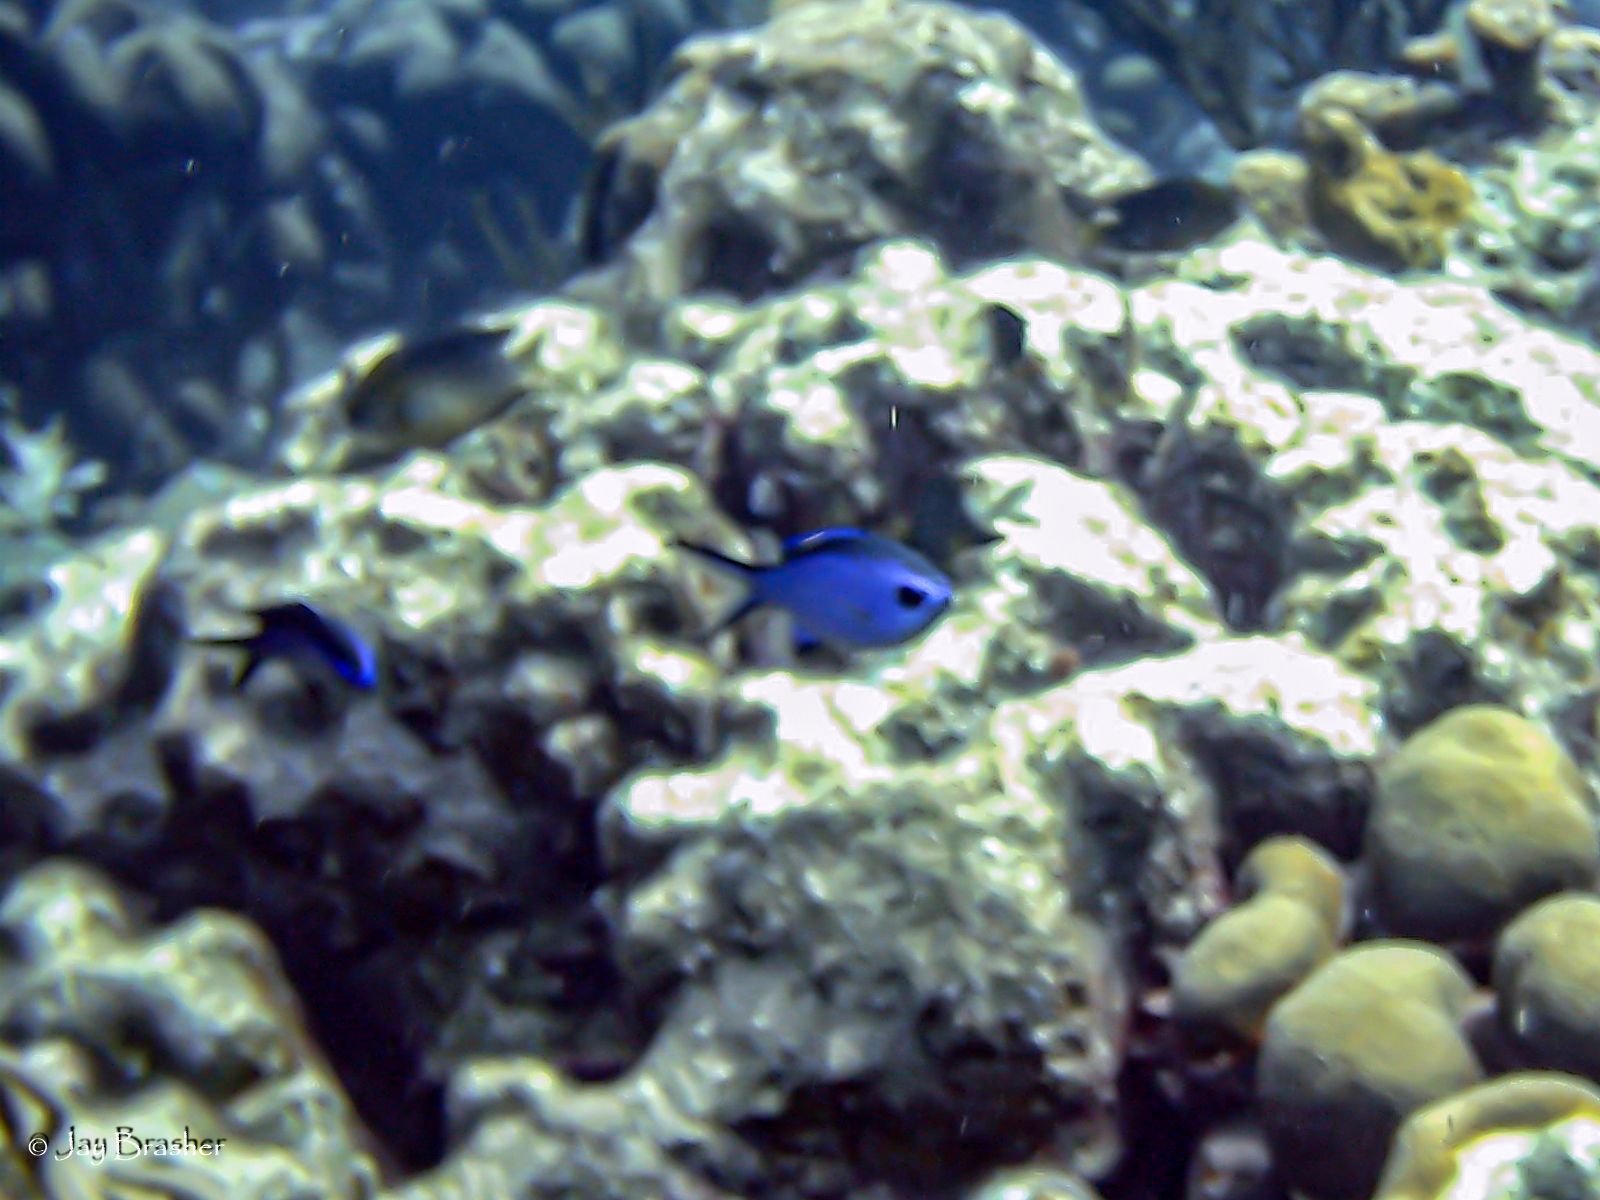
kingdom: Animalia
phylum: Chordata
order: Perciformes
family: Pomacentridae
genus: Chromis
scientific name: Chromis cyanea
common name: Blue chromis
